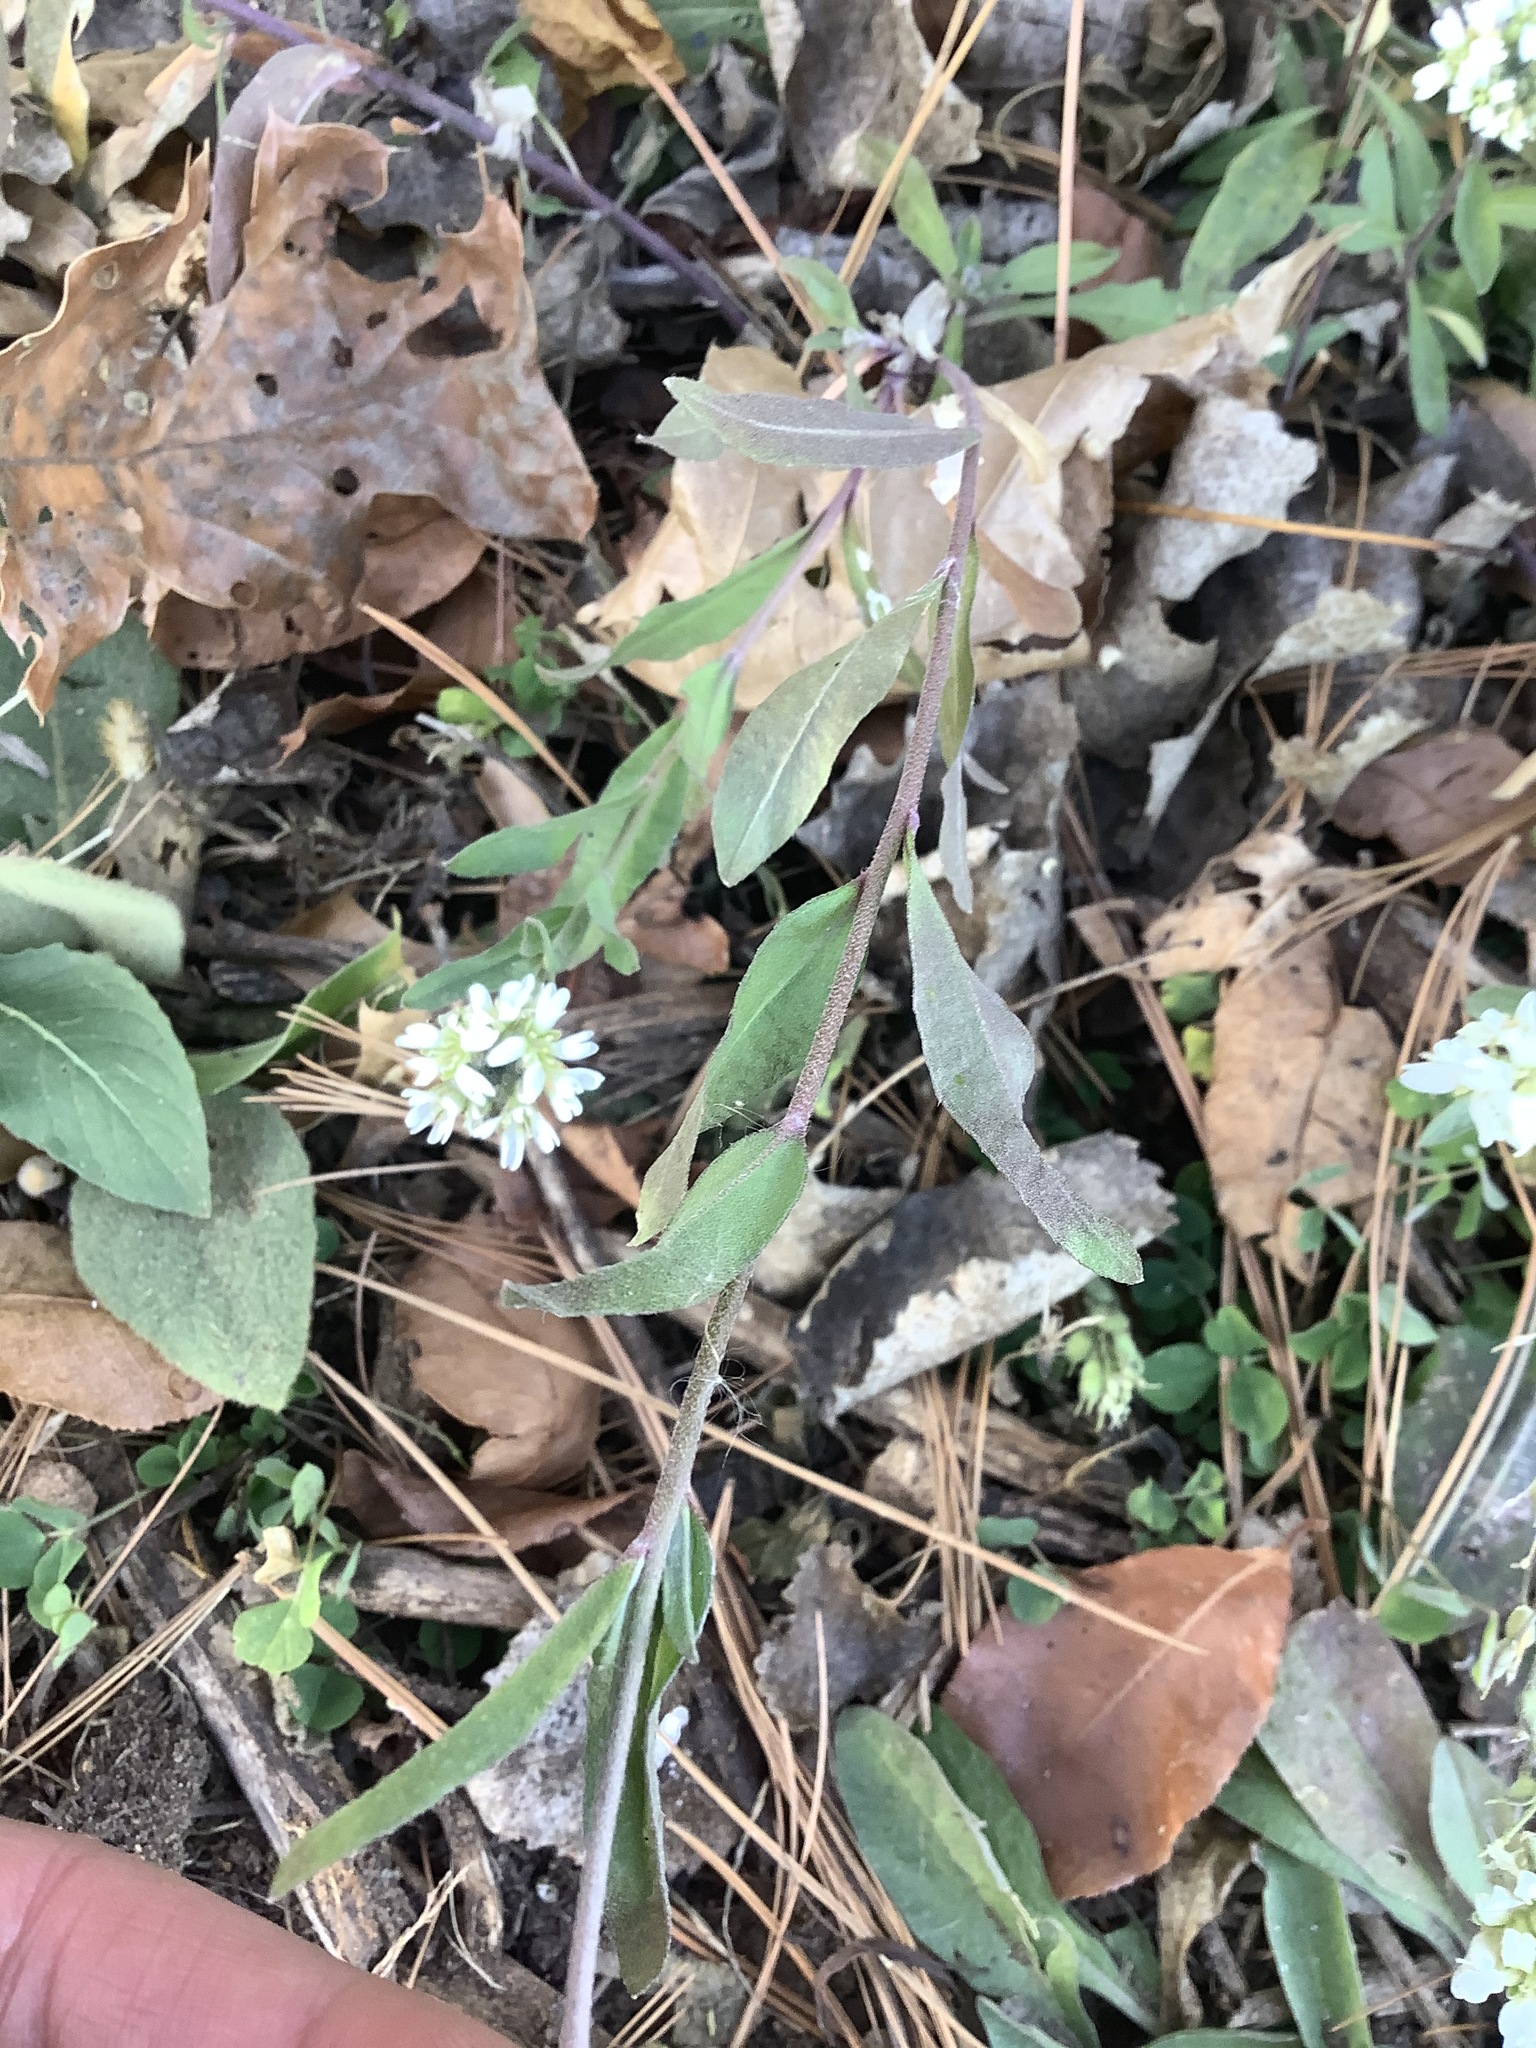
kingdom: Plantae
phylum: Tracheophyta
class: Magnoliopsida
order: Brassicales
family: Brassicaceae
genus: Berteroa
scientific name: Berteroa incana
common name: Hoary alison
